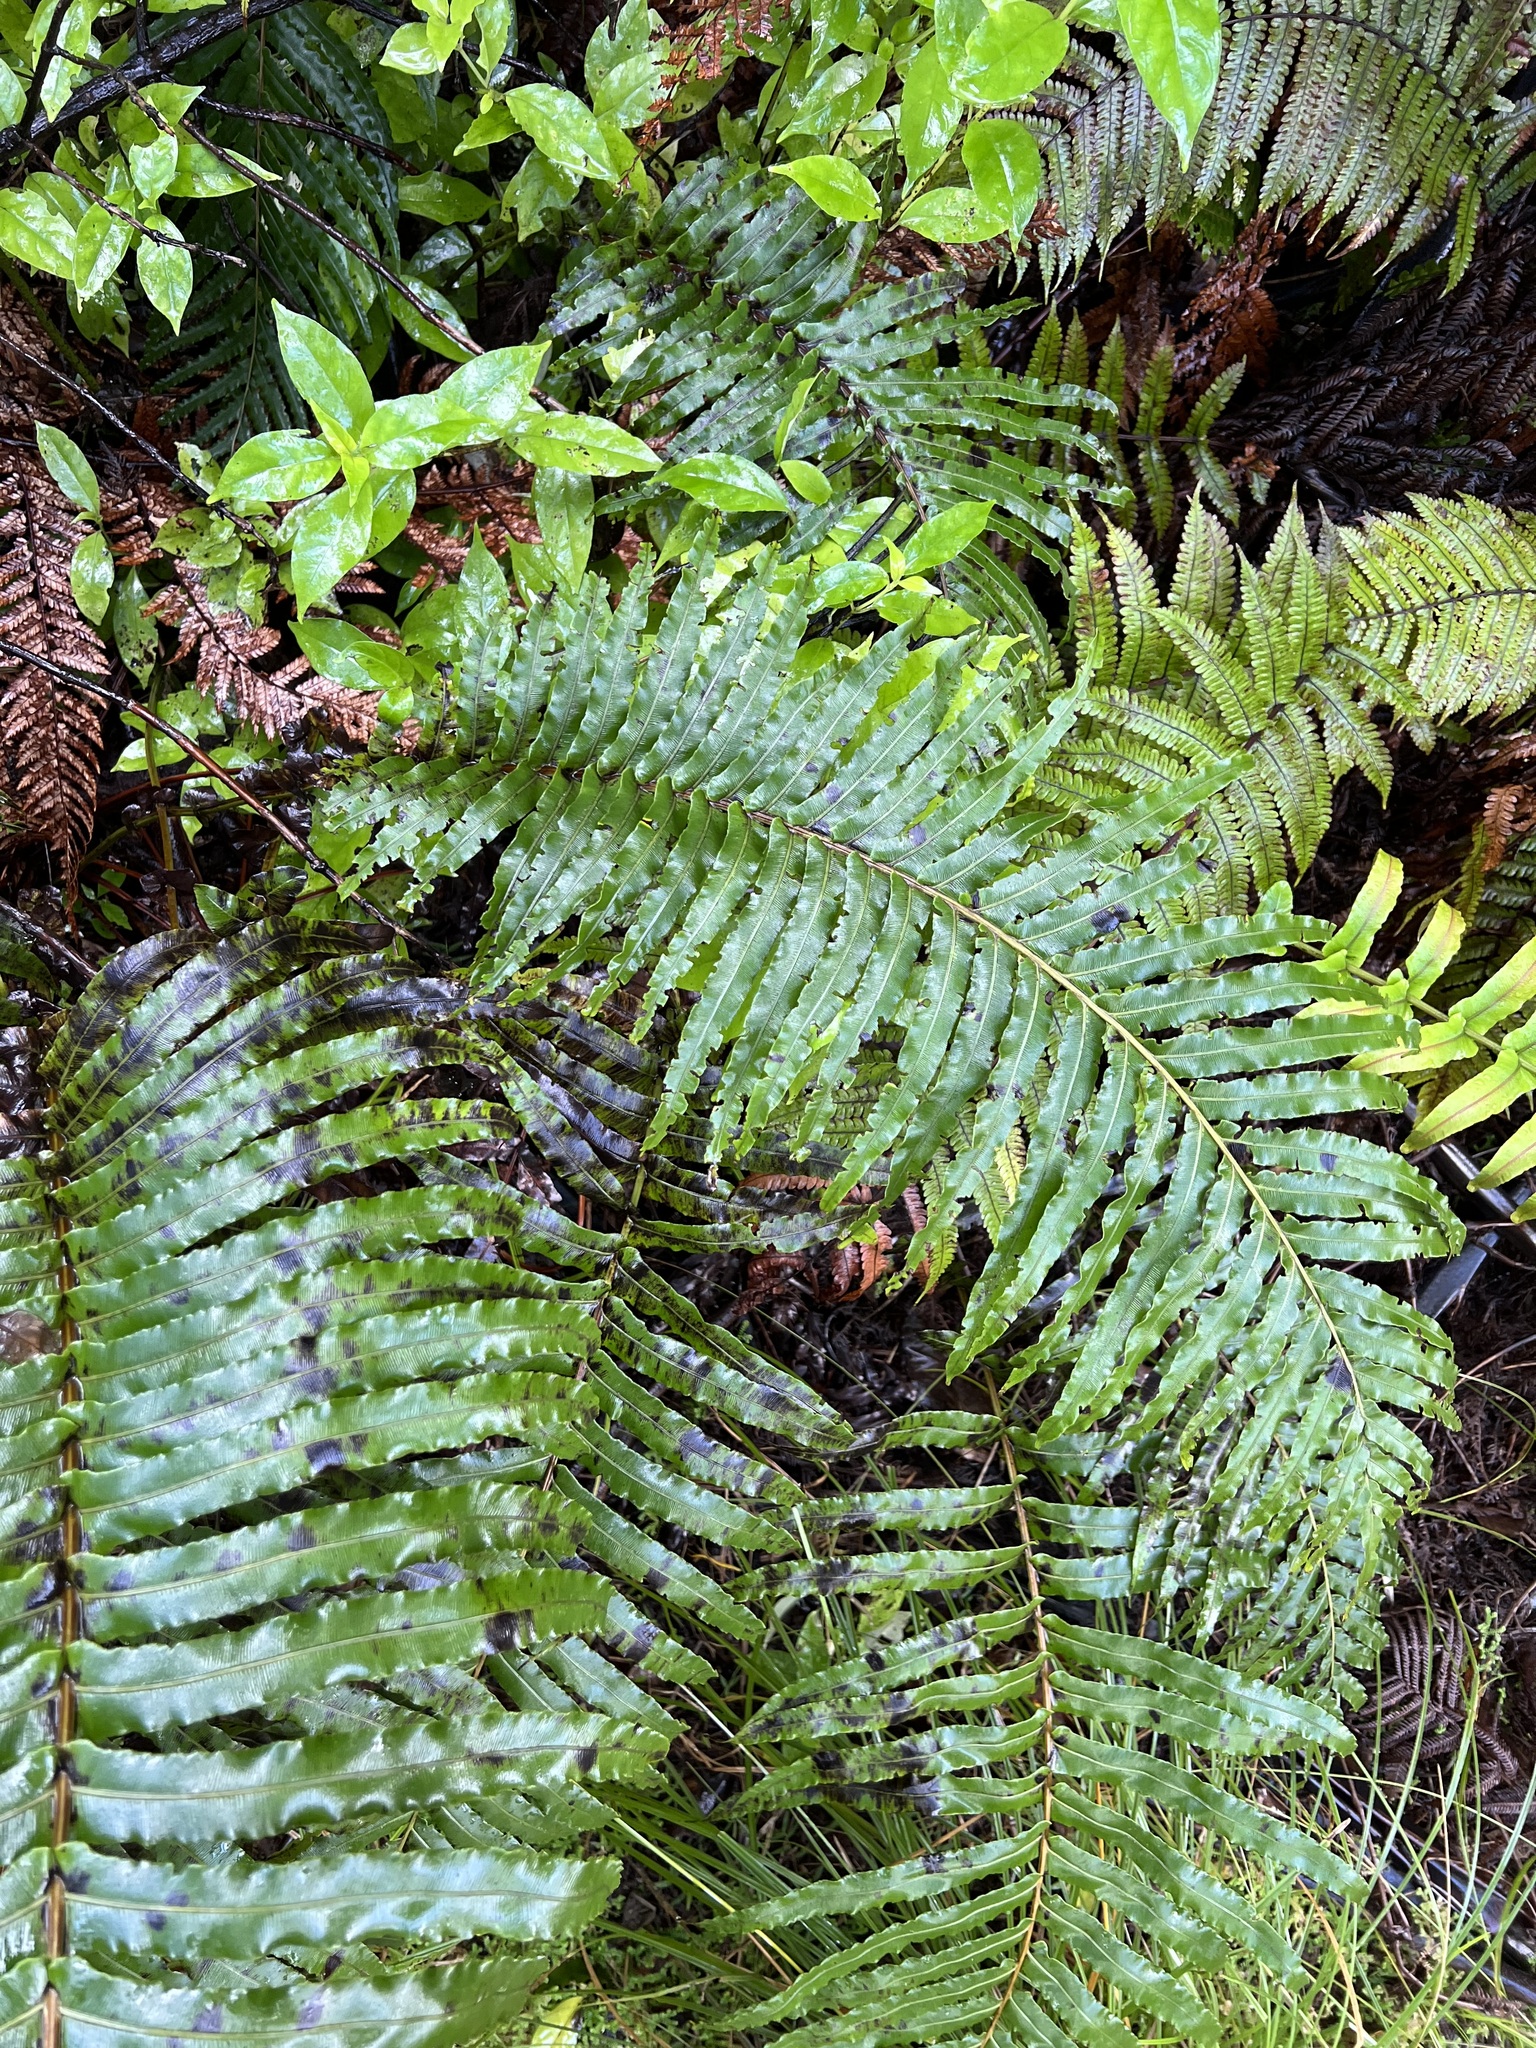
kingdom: Plantae
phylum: Tracheophyta
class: Polypodiopsida
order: Polypodiales
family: Blechnaceae
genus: Parablechnum
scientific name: Parablechnum novae-zelandiae
